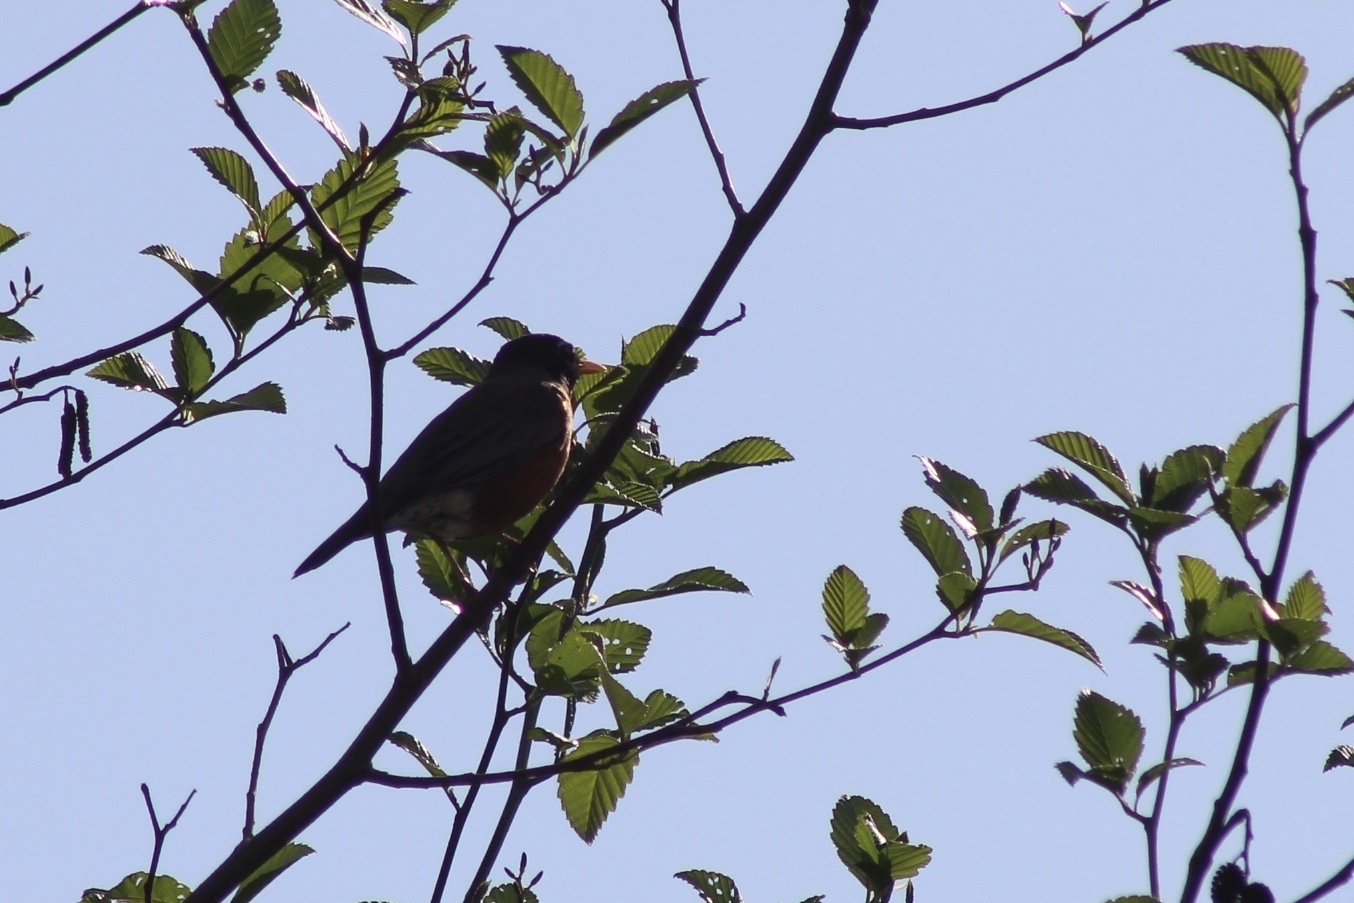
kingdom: Animalia
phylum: Chordata
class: Aves
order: Passeriformes
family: Turdidae
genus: Turdus
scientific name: Turdus migratorius
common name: American robin
